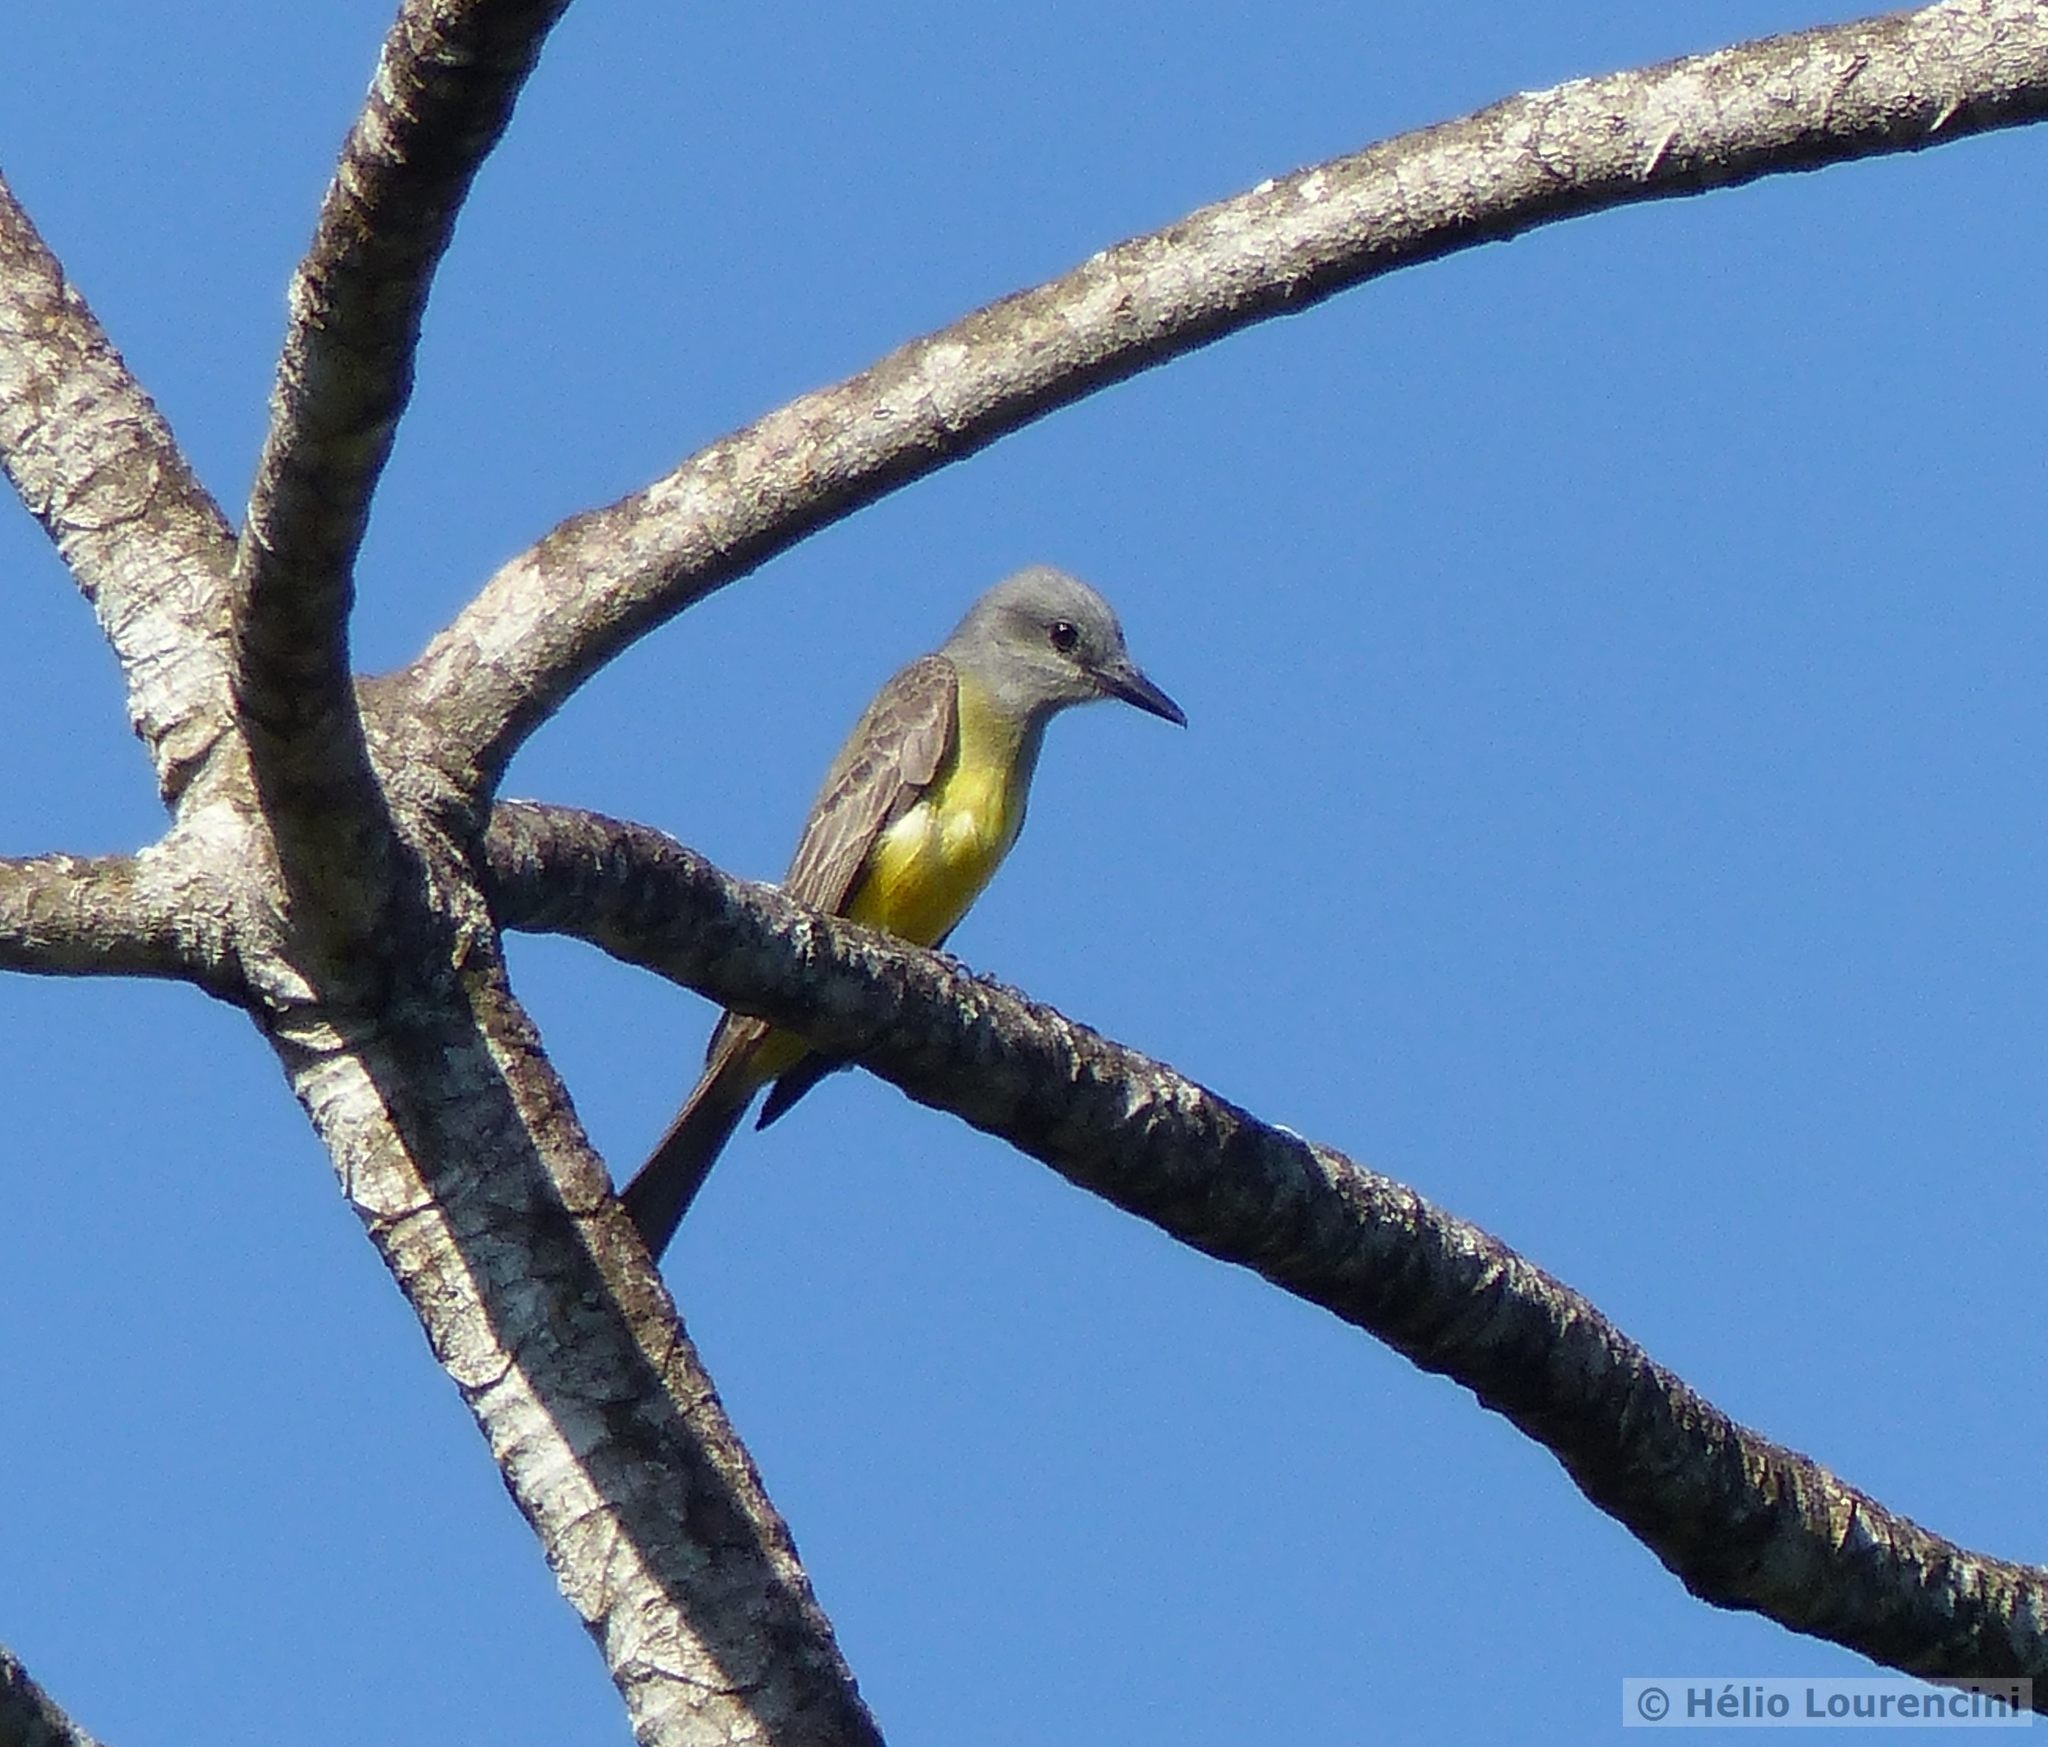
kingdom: Animalia
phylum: Chordata
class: Aves
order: Passeriformes
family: Tyrannidae
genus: Tyrannus
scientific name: Tyrannus melancholicus
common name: Tropical kingbird
